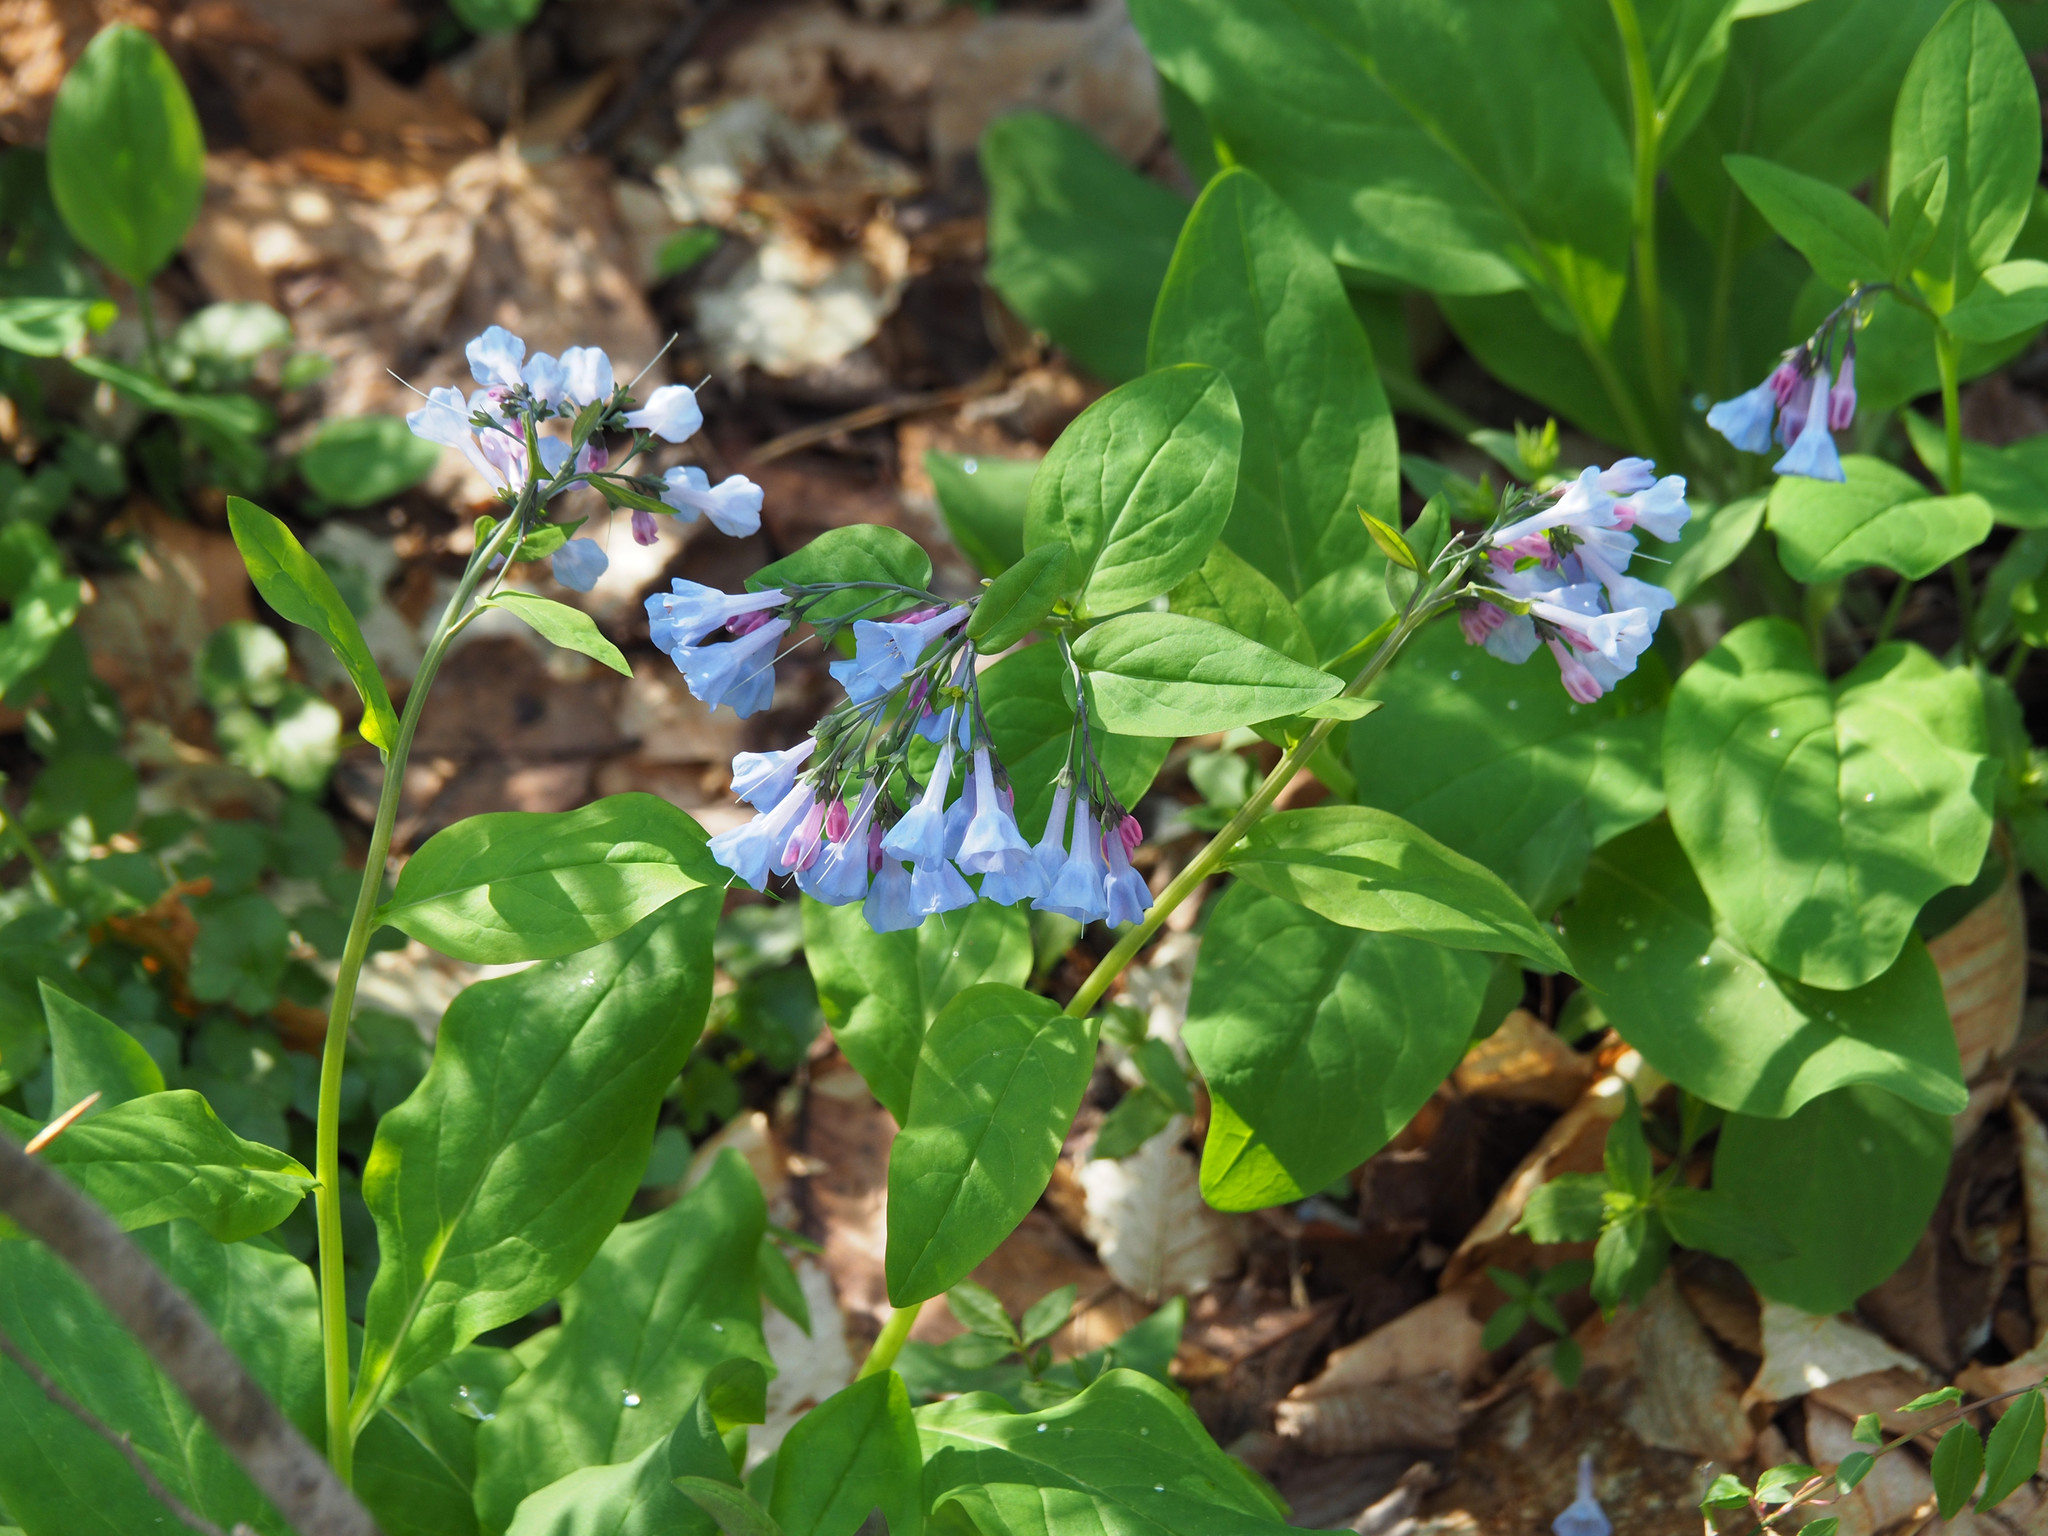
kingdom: Plantae
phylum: Tracheophyta
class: Magnoliopsida
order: Boraginales
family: Boraginaceae
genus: Mertensia
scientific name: Mertensia virginica
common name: Virginia bluebells
